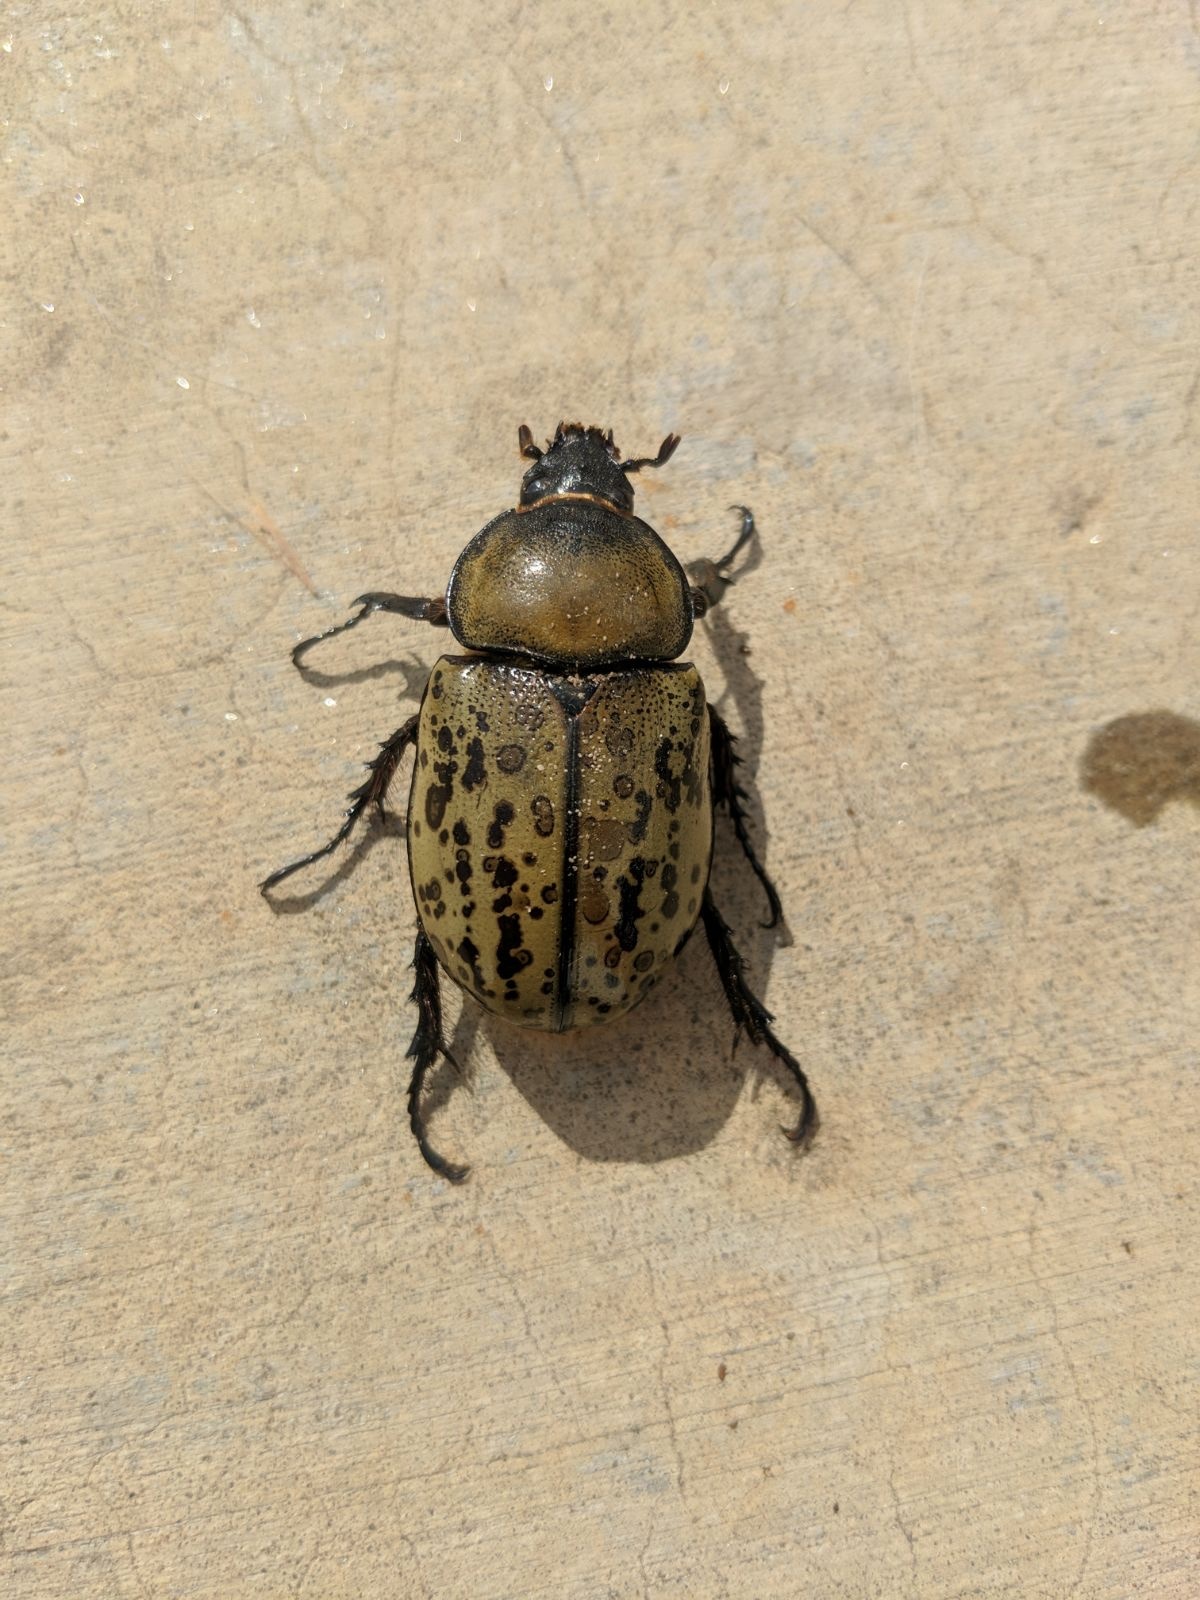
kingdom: Animalia
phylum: Arthropoda
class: Insecta
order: Coleoptera
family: Scarabaeidae
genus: Dynastes
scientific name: Dynastes tityus
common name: Eastern hercules beetle
